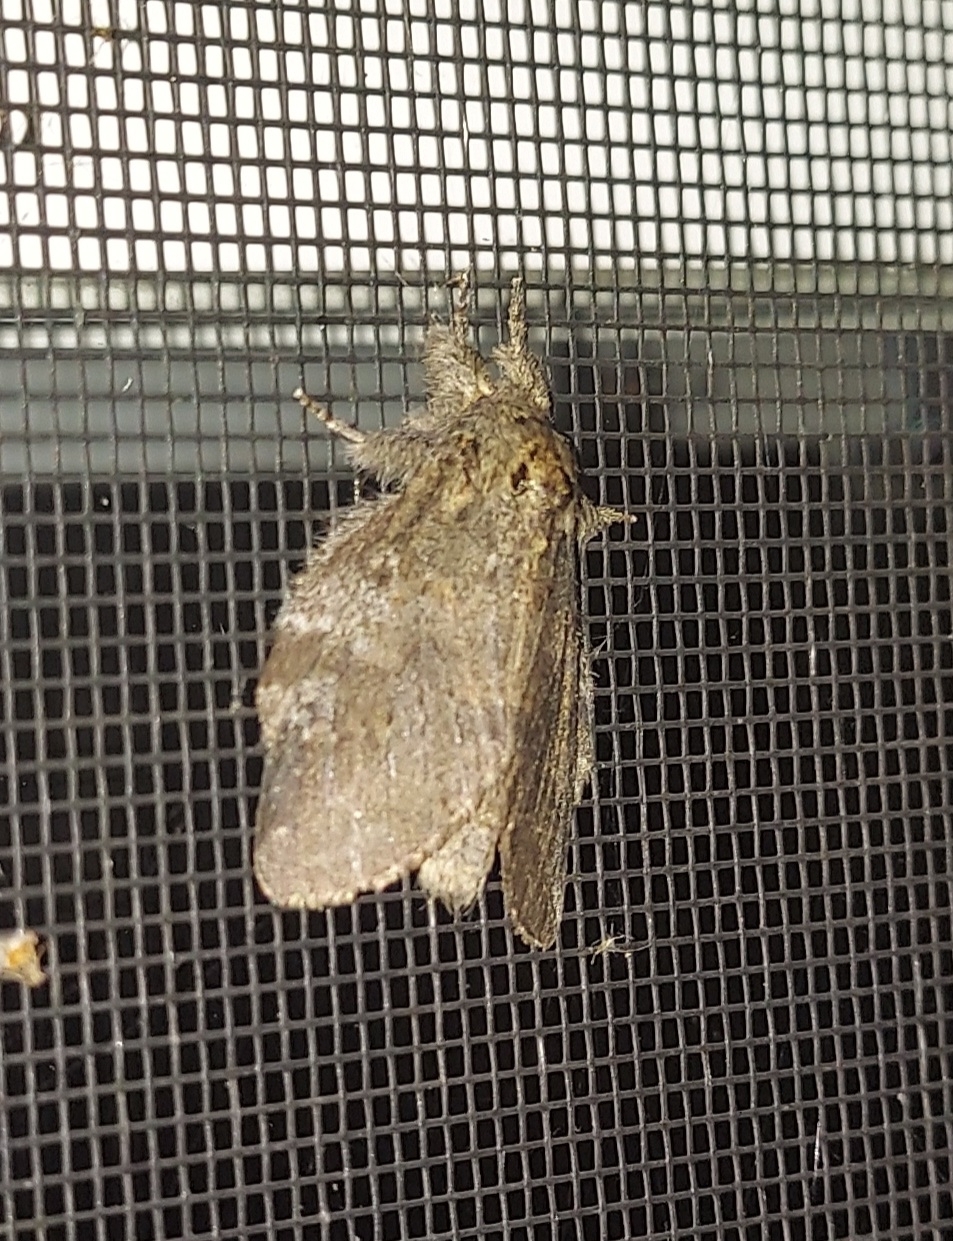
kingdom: Animalia
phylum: Arthropoda
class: Insecta
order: Lepidoptera
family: Notodontidae
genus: Peridea
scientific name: Peridea angulosa
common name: Angulose prominent
